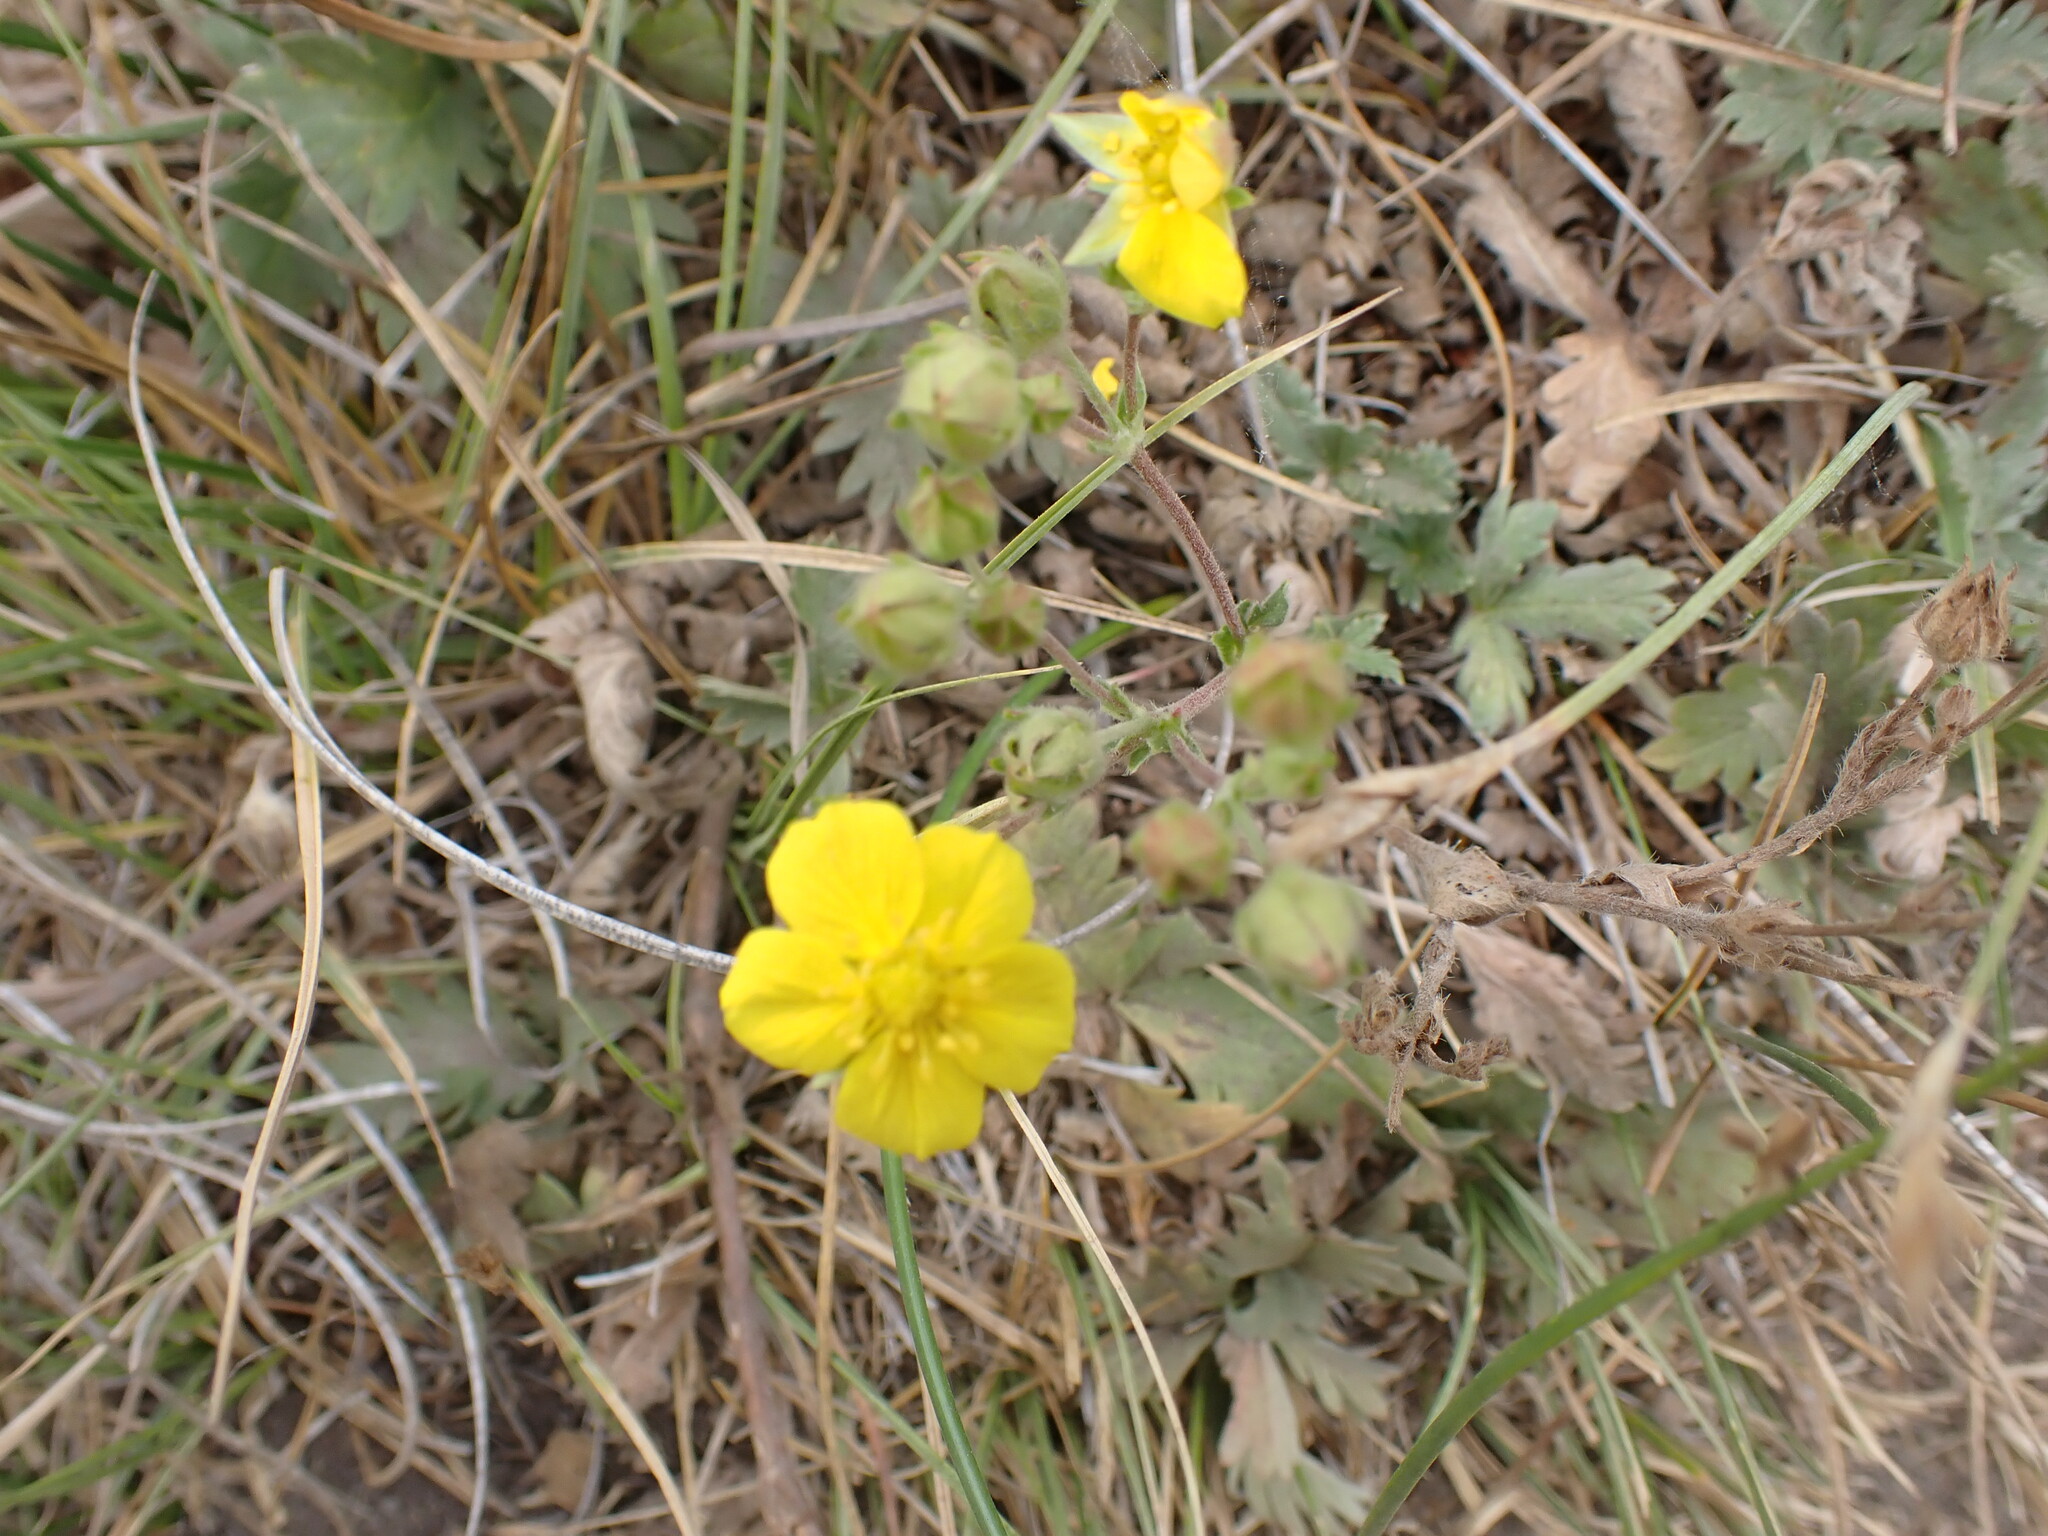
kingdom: Plantae
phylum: Tracheophyta
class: Magnoliopsida
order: Rosales
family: Rosaceae
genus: Potentilla
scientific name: Potentilla gracilis
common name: Graceful cinquefoil
